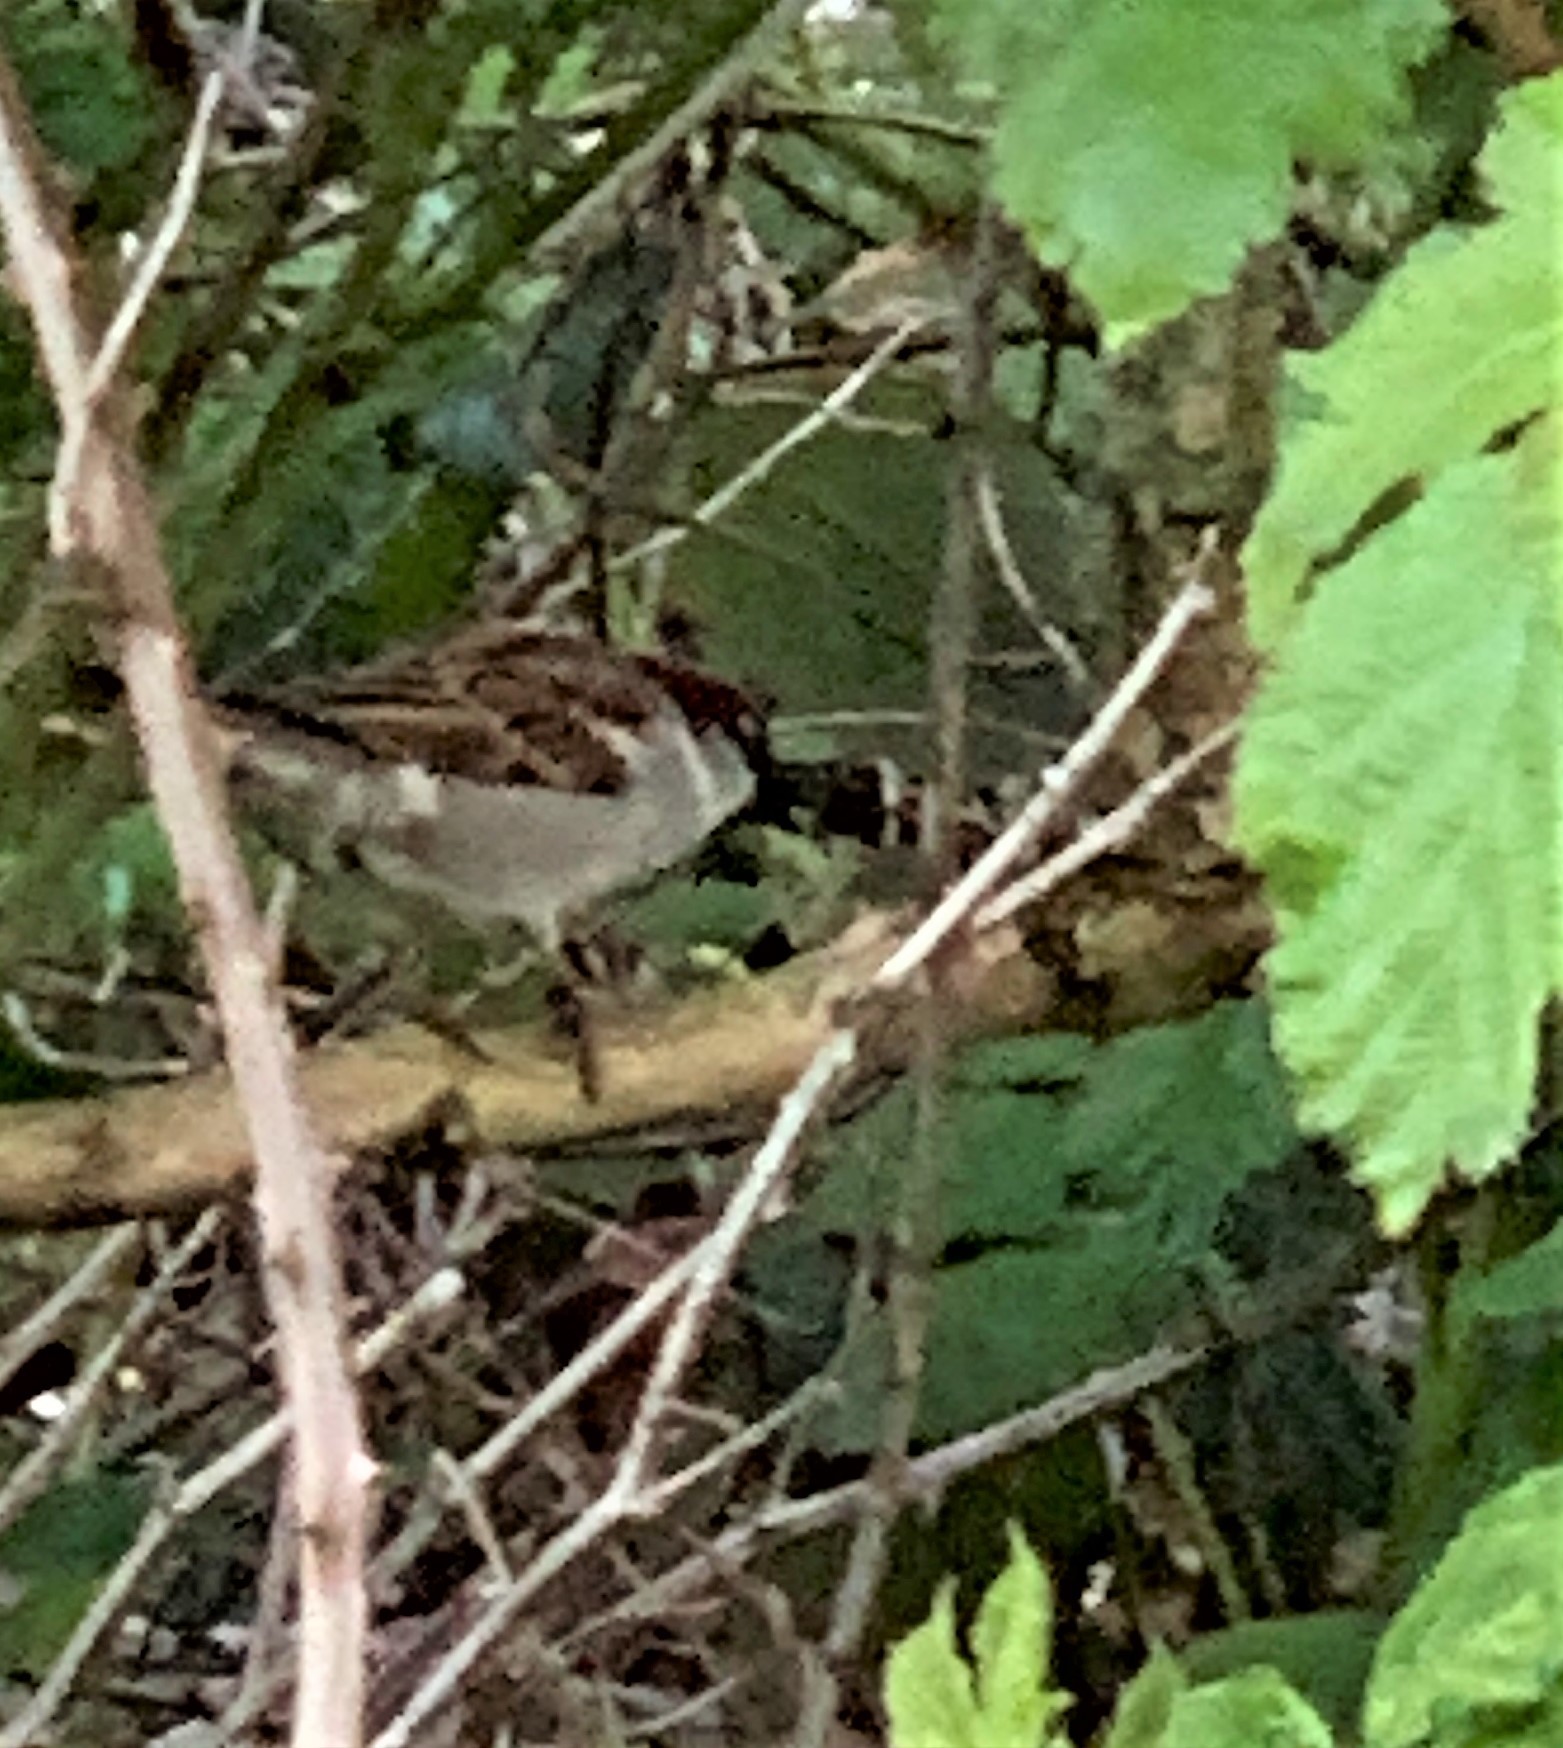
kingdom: Animalia
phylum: Chordata
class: Aves
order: Passeriformes
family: Passeridae
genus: Passer
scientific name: Passer domesticus
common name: House sparrow
